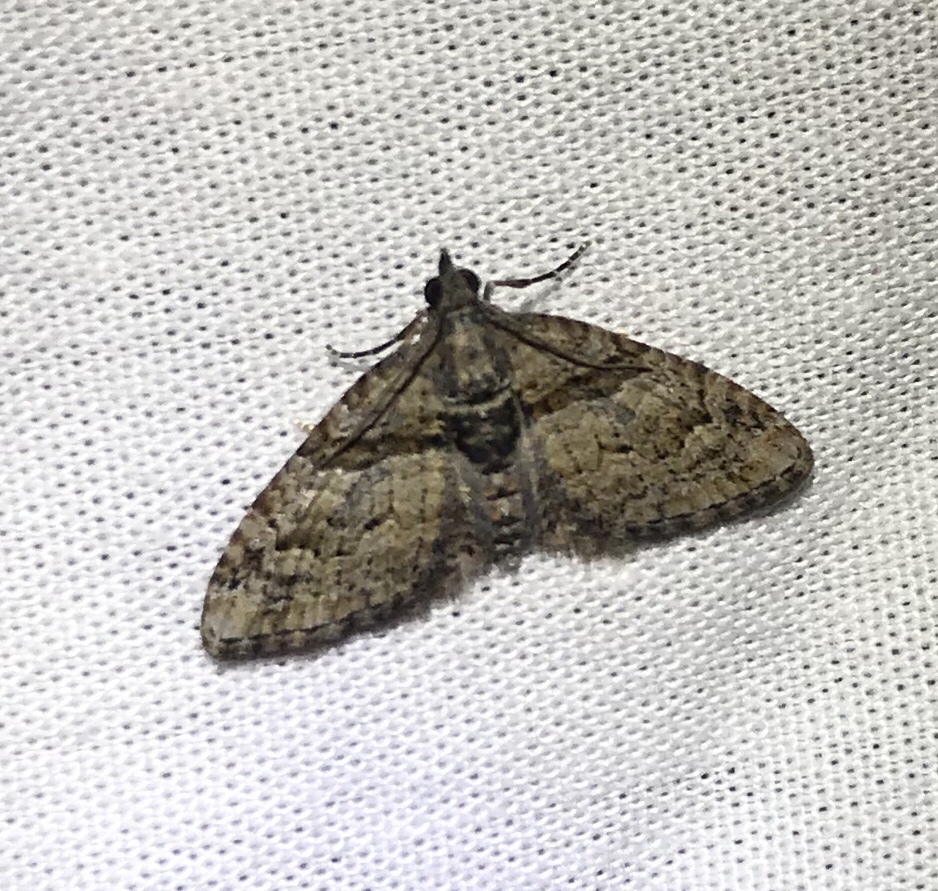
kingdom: Animalia
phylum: Arthropoda
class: Insecta
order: Lepidoptera
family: Geometridae
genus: Phrissogonus
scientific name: Phrissogonus laticostata
